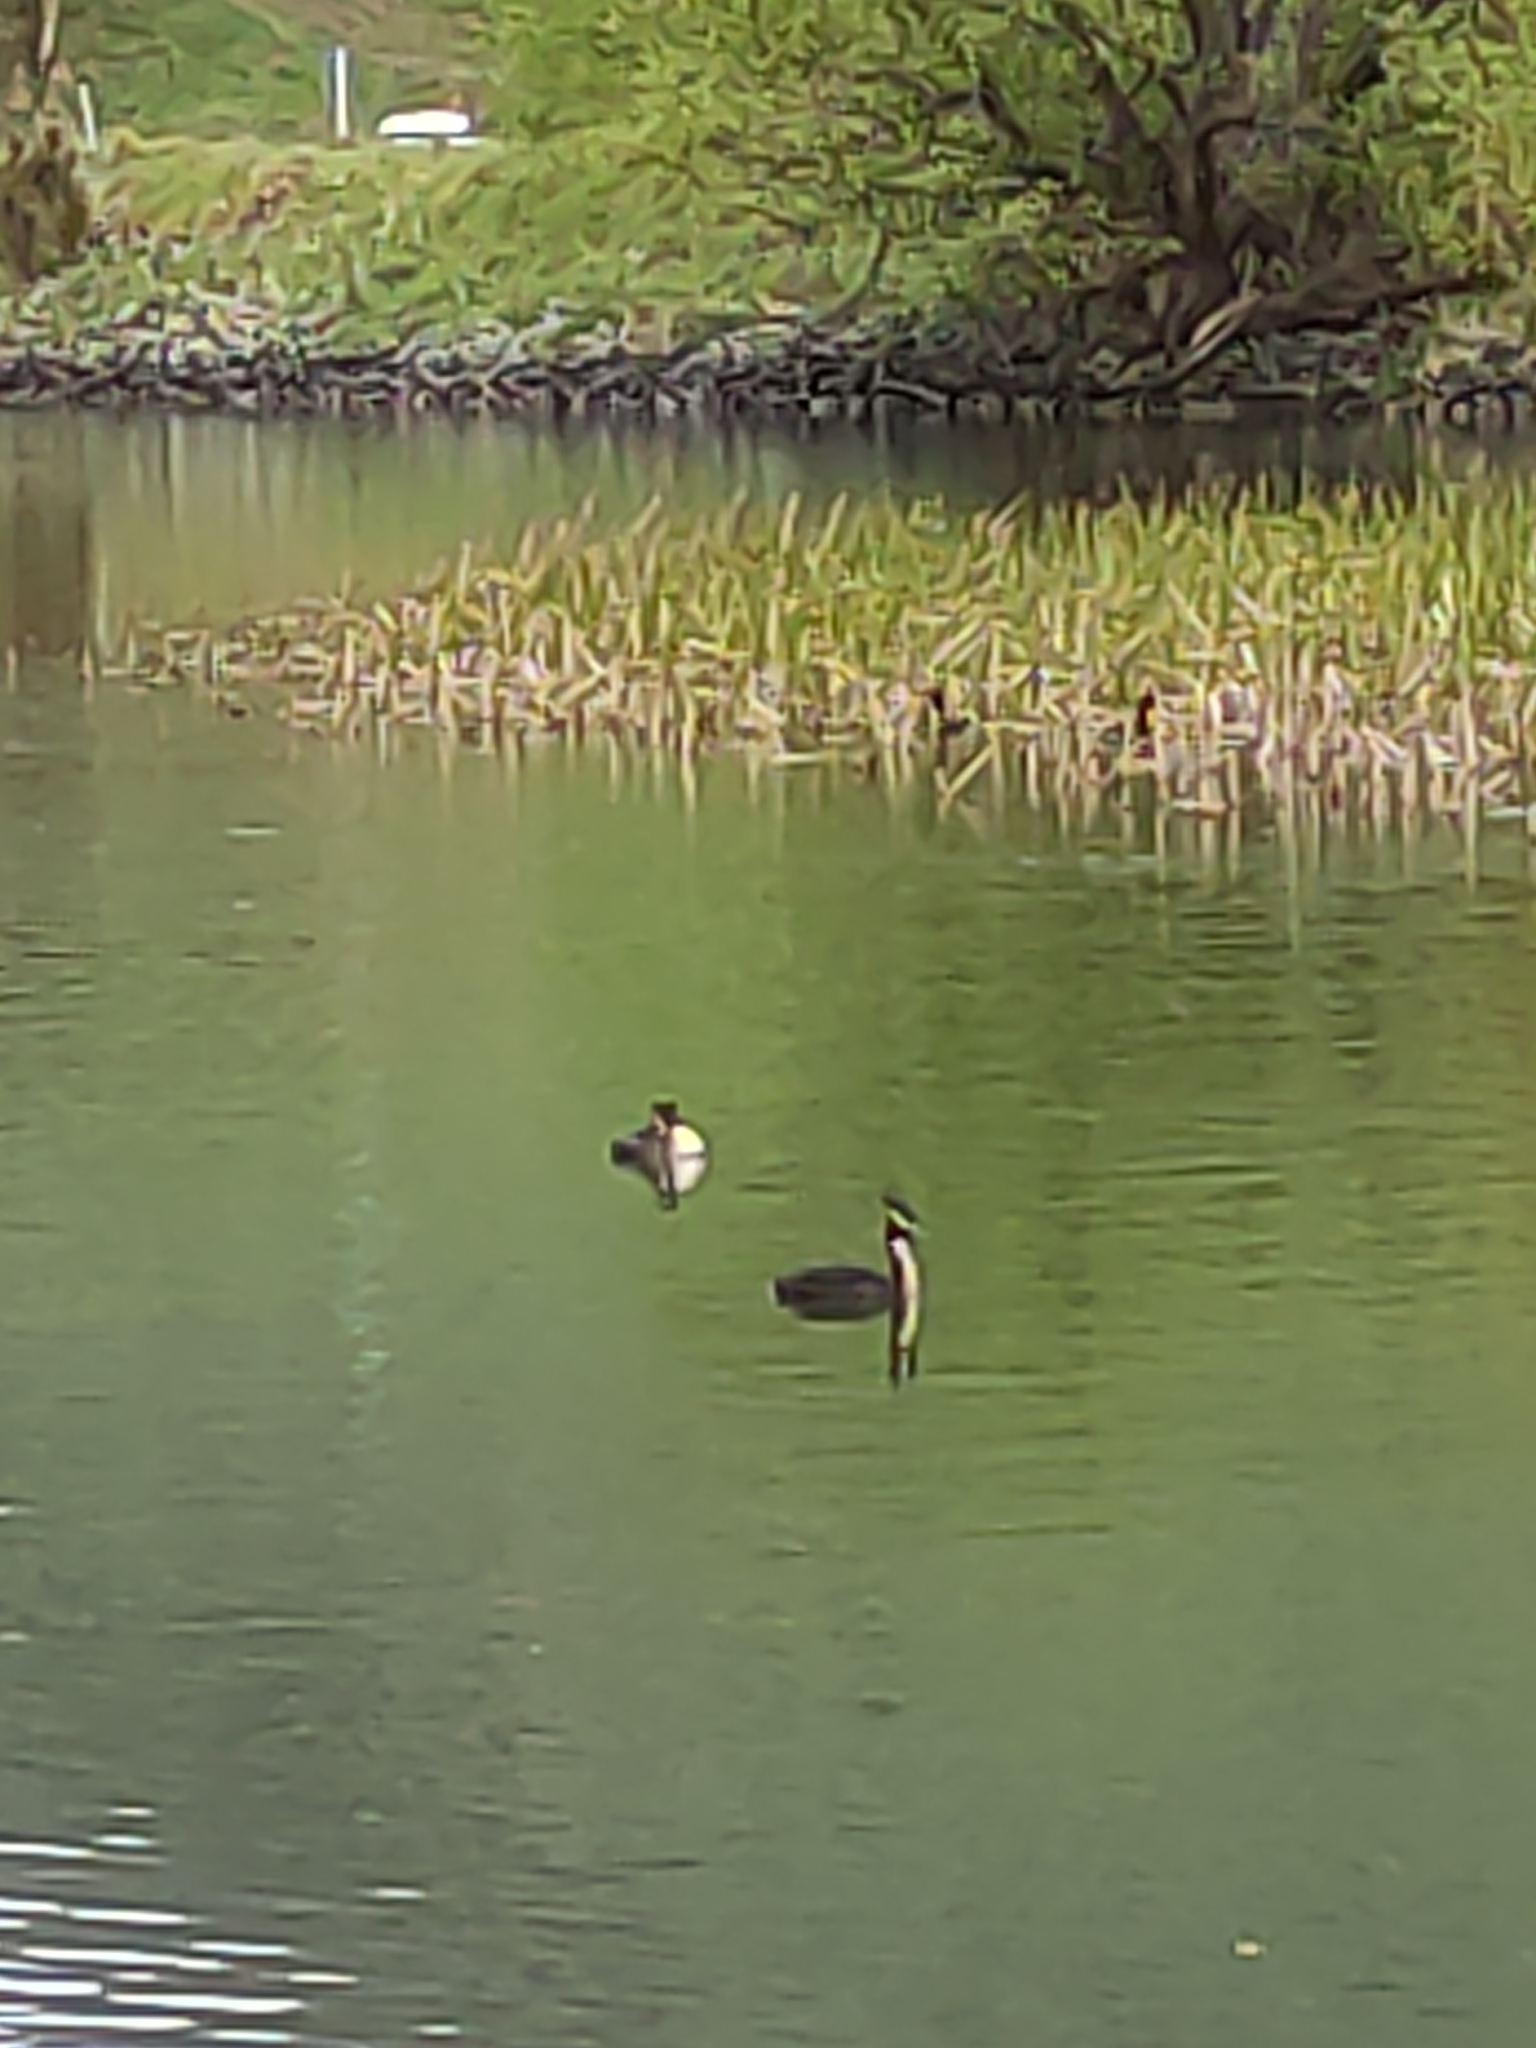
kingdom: Animalia
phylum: Chordata
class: Aves
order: Podicipediformes
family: Podicipedidae
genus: Podiceps
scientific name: Podiceps cristatus
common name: Great crested grebe
